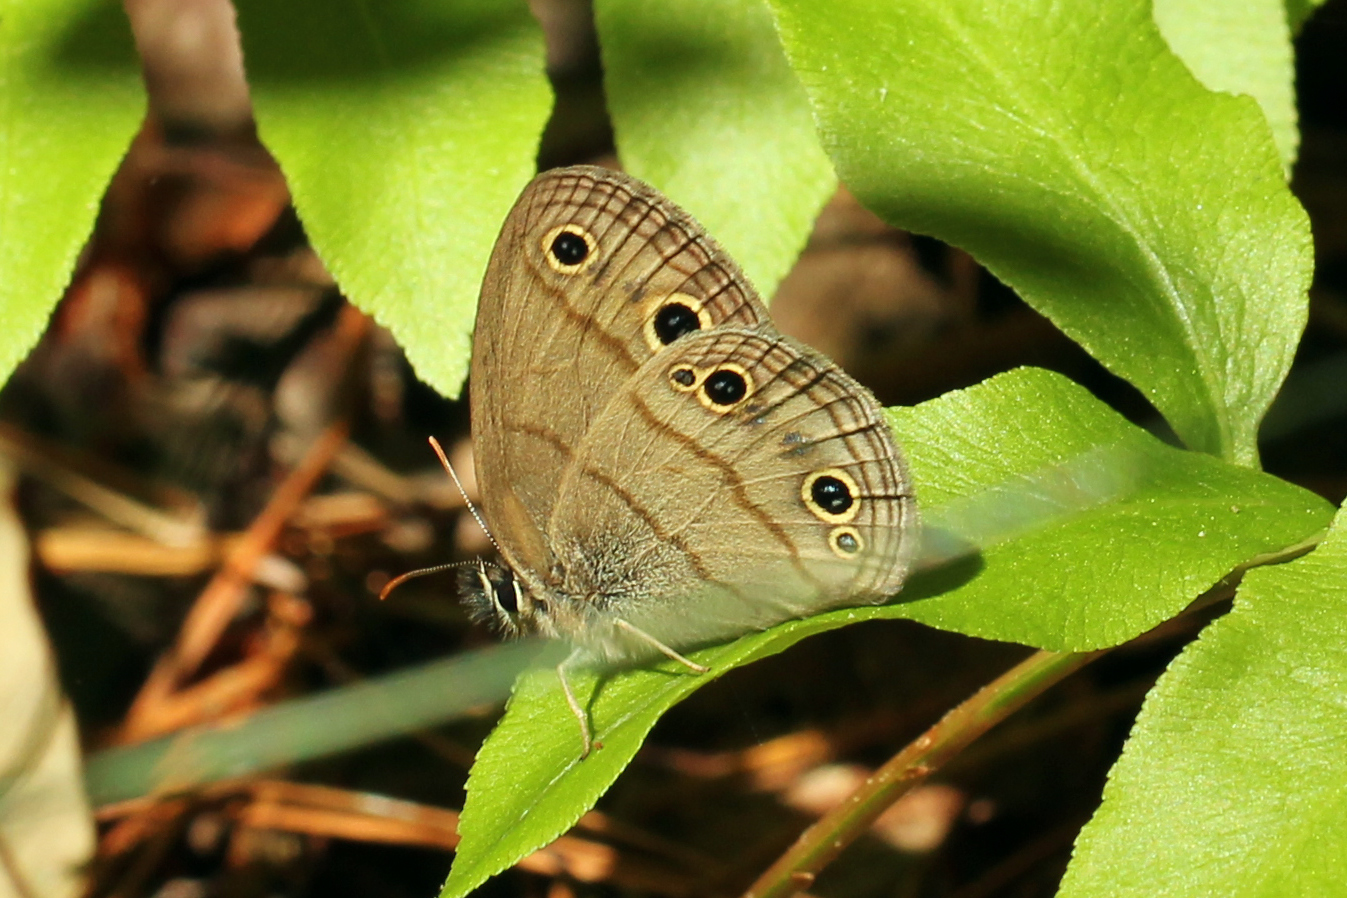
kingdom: Animalia
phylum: Arthropoda
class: Insecta
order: Lepidoptera
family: Nymphalidae
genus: Euptychia
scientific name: Euptychia cymela
